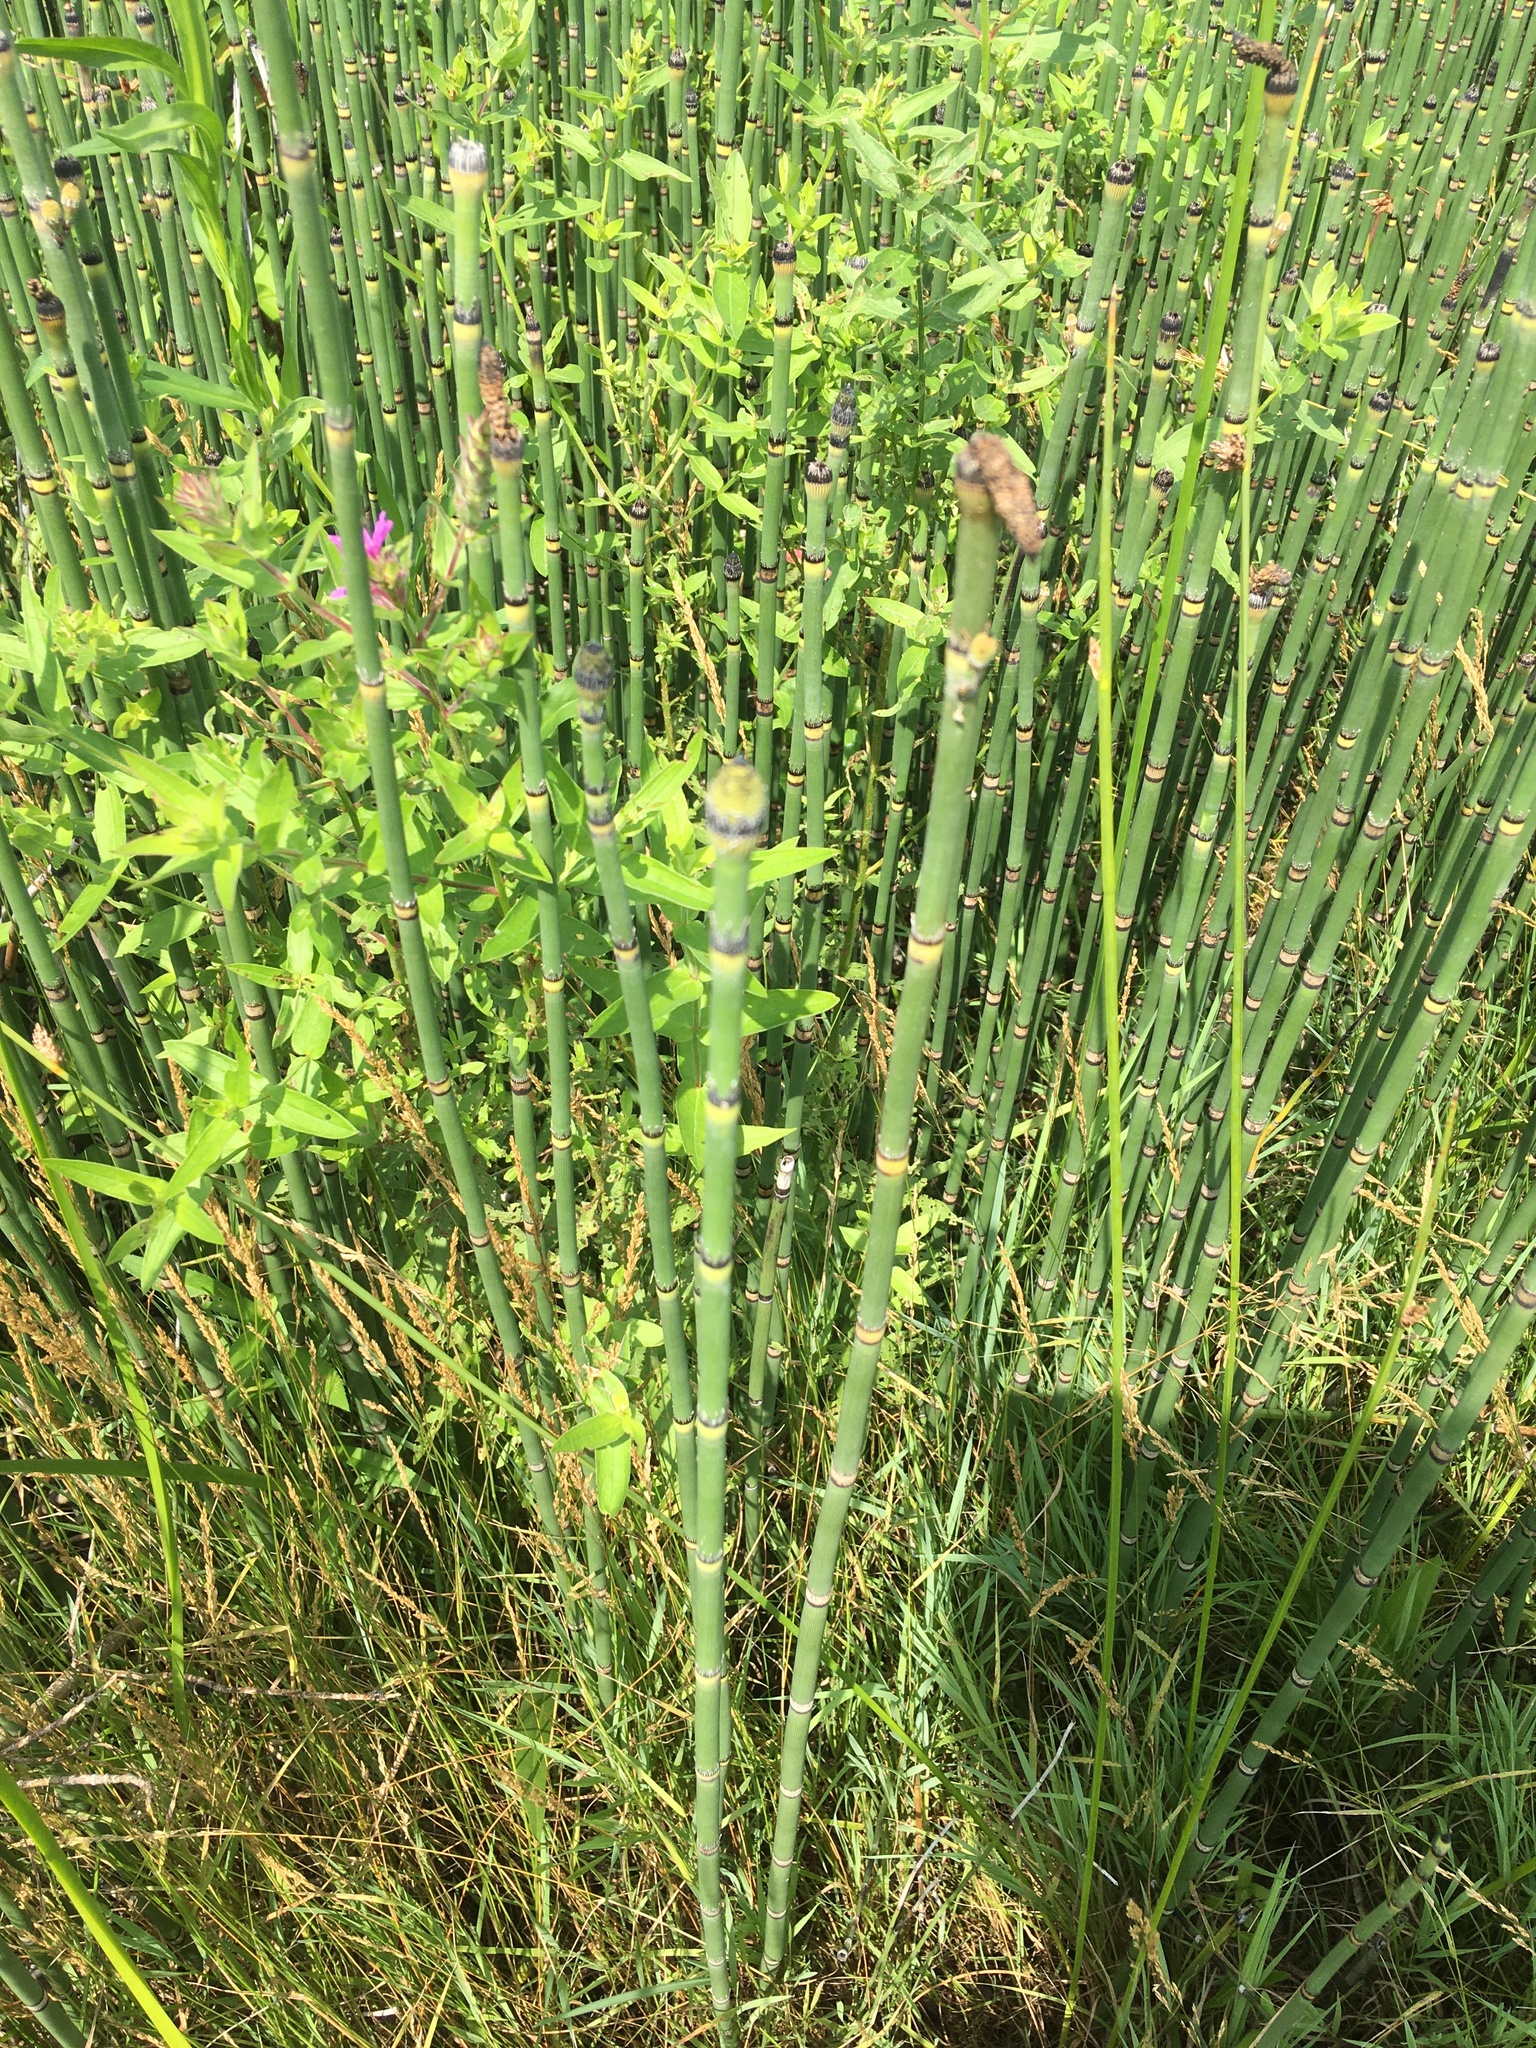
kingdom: Plantae
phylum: Tracheophyta
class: Polypodiopsida
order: Equisetales
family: Equisetaceae
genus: Equisetum
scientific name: Equisetum hyemale
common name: Rough horsetail
